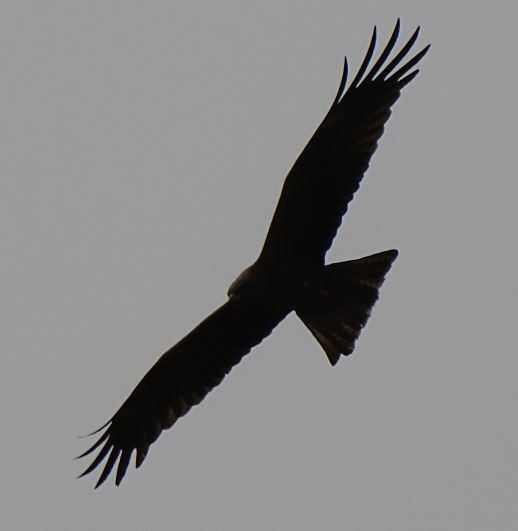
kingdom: Animalia
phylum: Chordata
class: Aves
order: Accipitriformes
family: Accipitridae
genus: Milvus
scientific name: Milvus migrans
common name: Black kite
